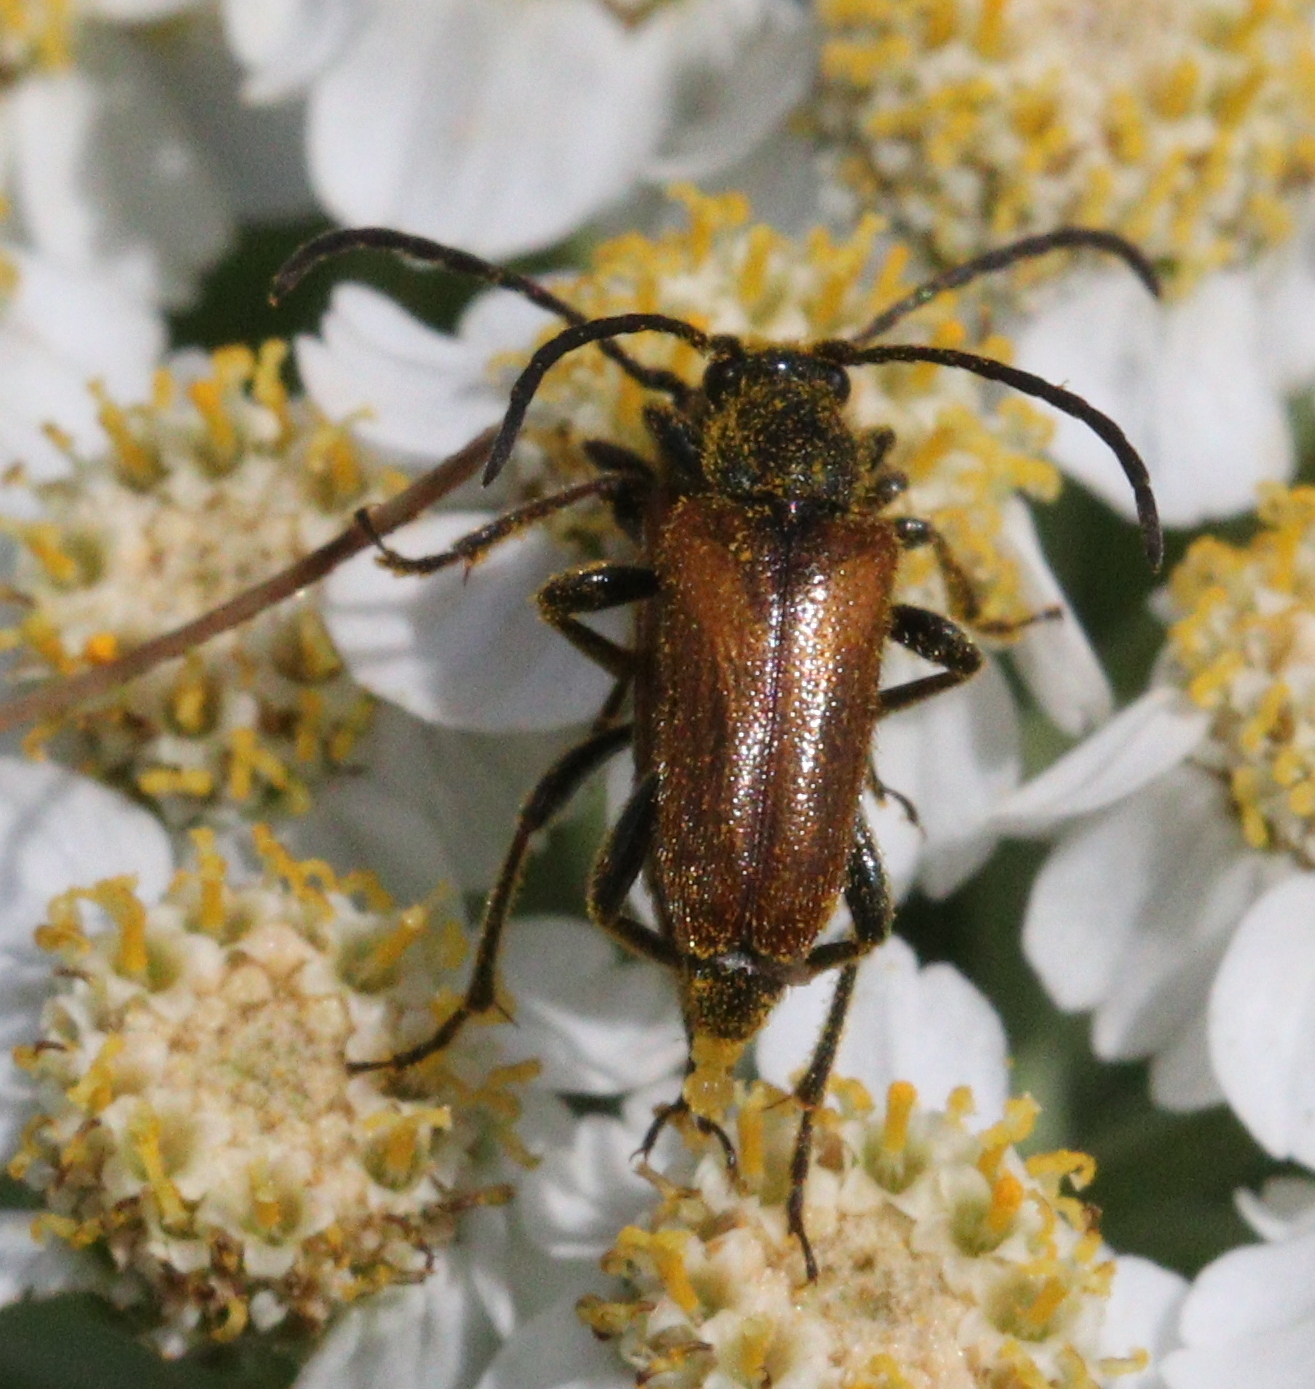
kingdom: Animalia
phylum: Arthropoda
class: Insecta
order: Coleoptera
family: Cerambycidae
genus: Pseudovadonia
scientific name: Pseudovadonia livida
